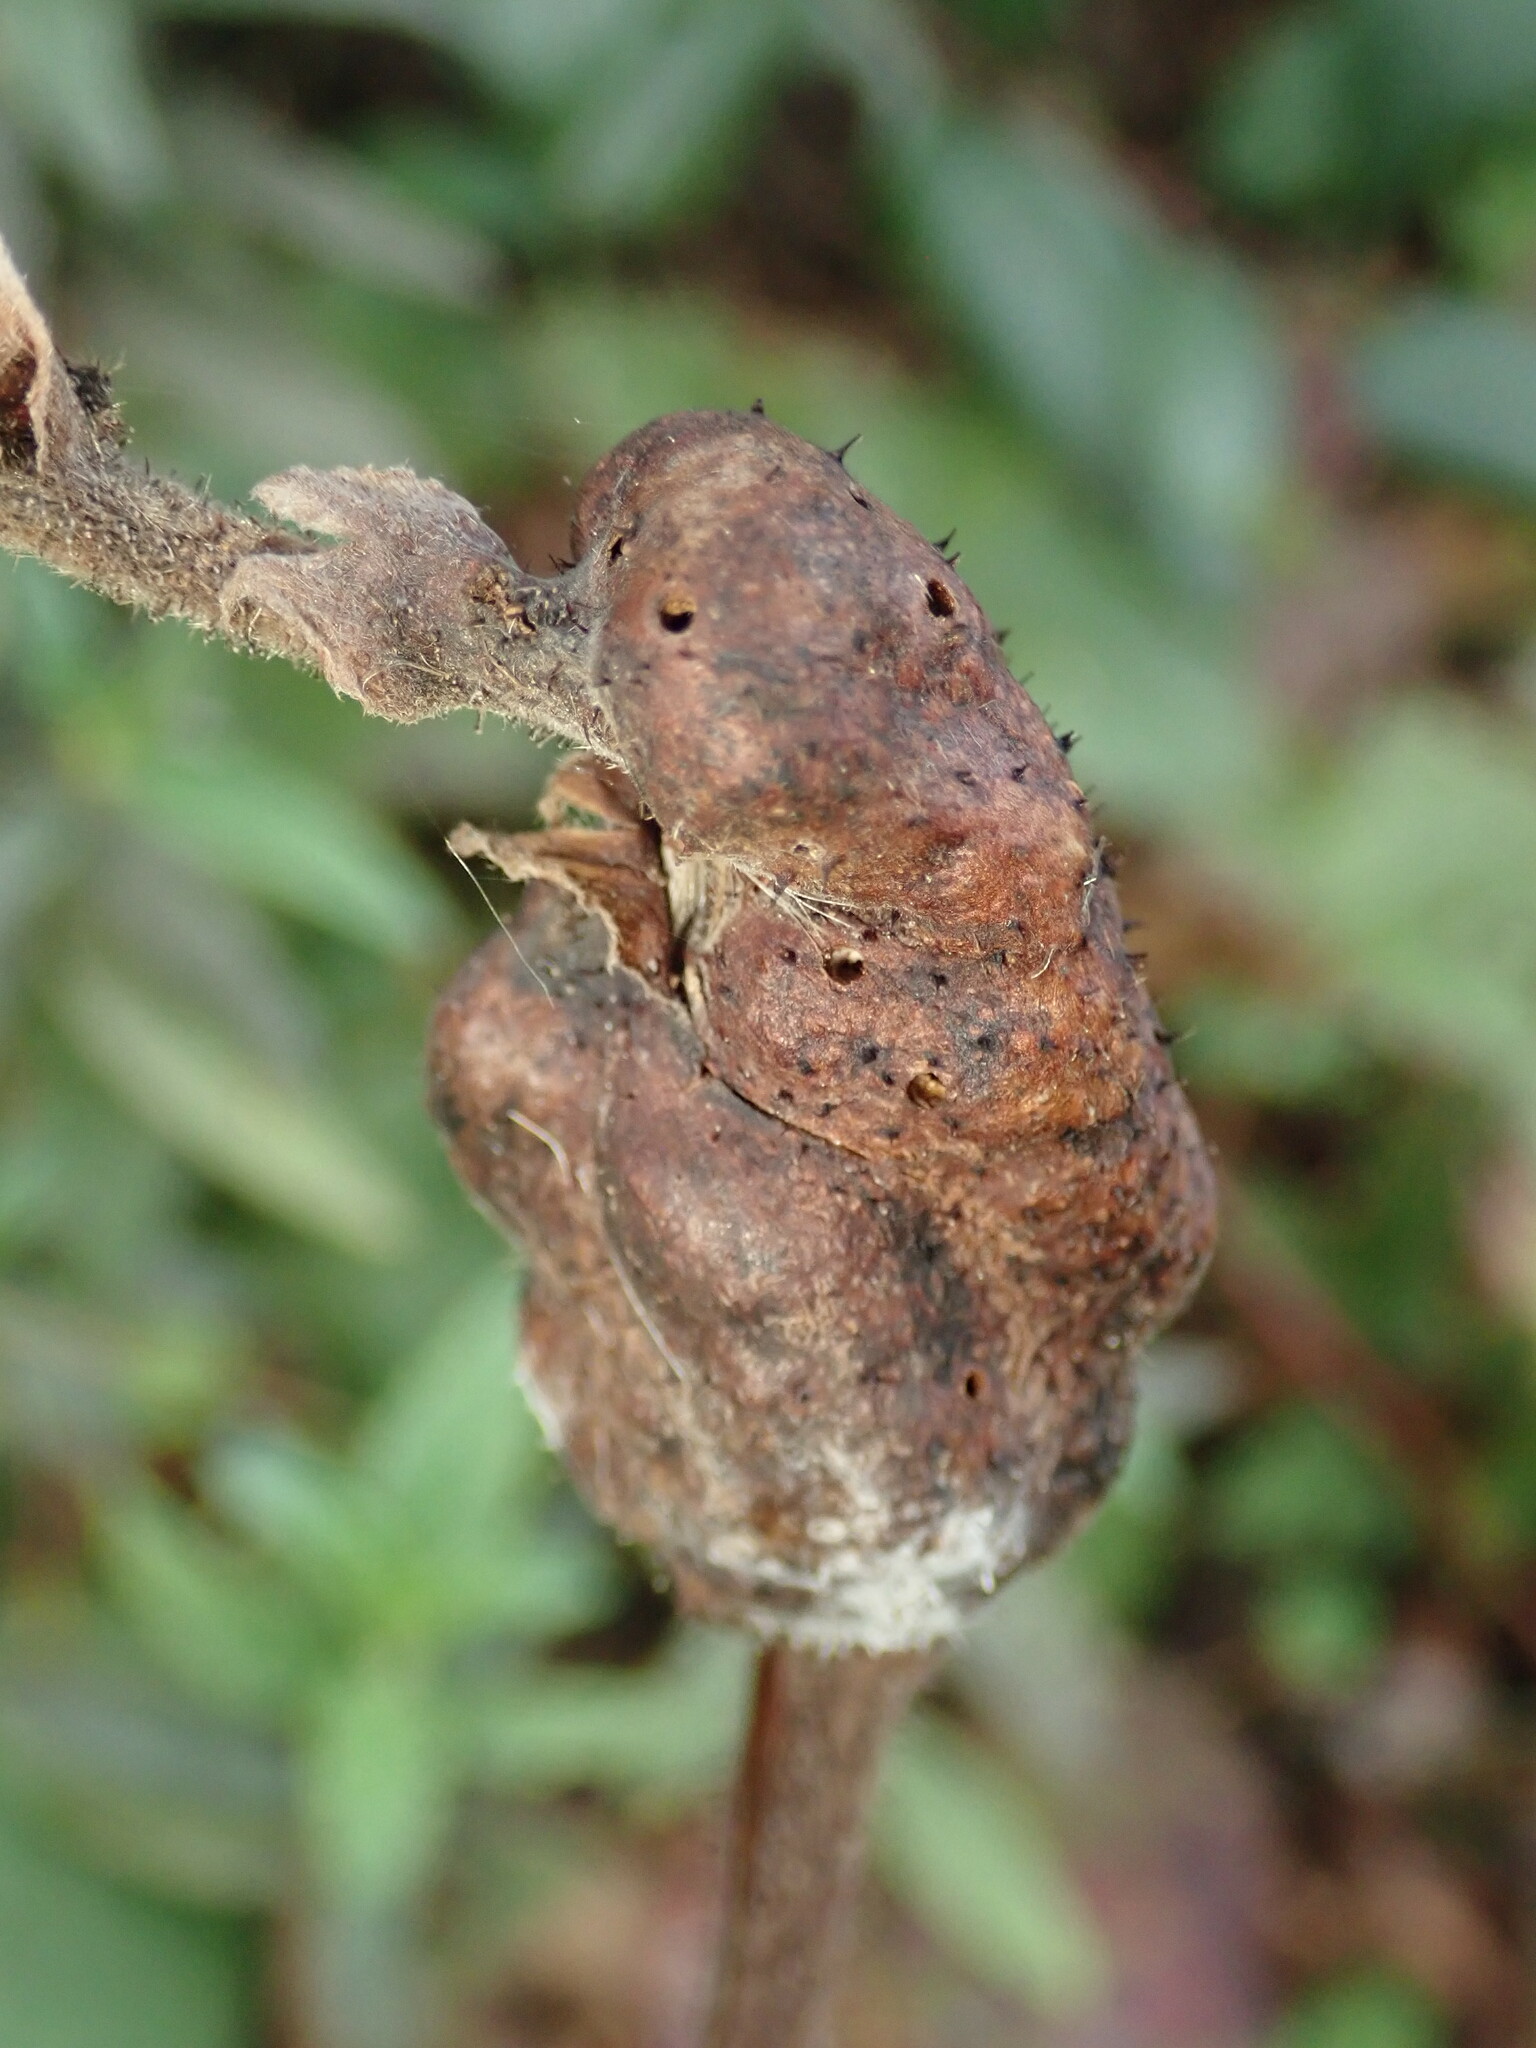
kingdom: Animalia
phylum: Arthropoda
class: Insecta
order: Hymenoptera
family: Cynipidae
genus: Diastrophus
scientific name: Diastrophus
